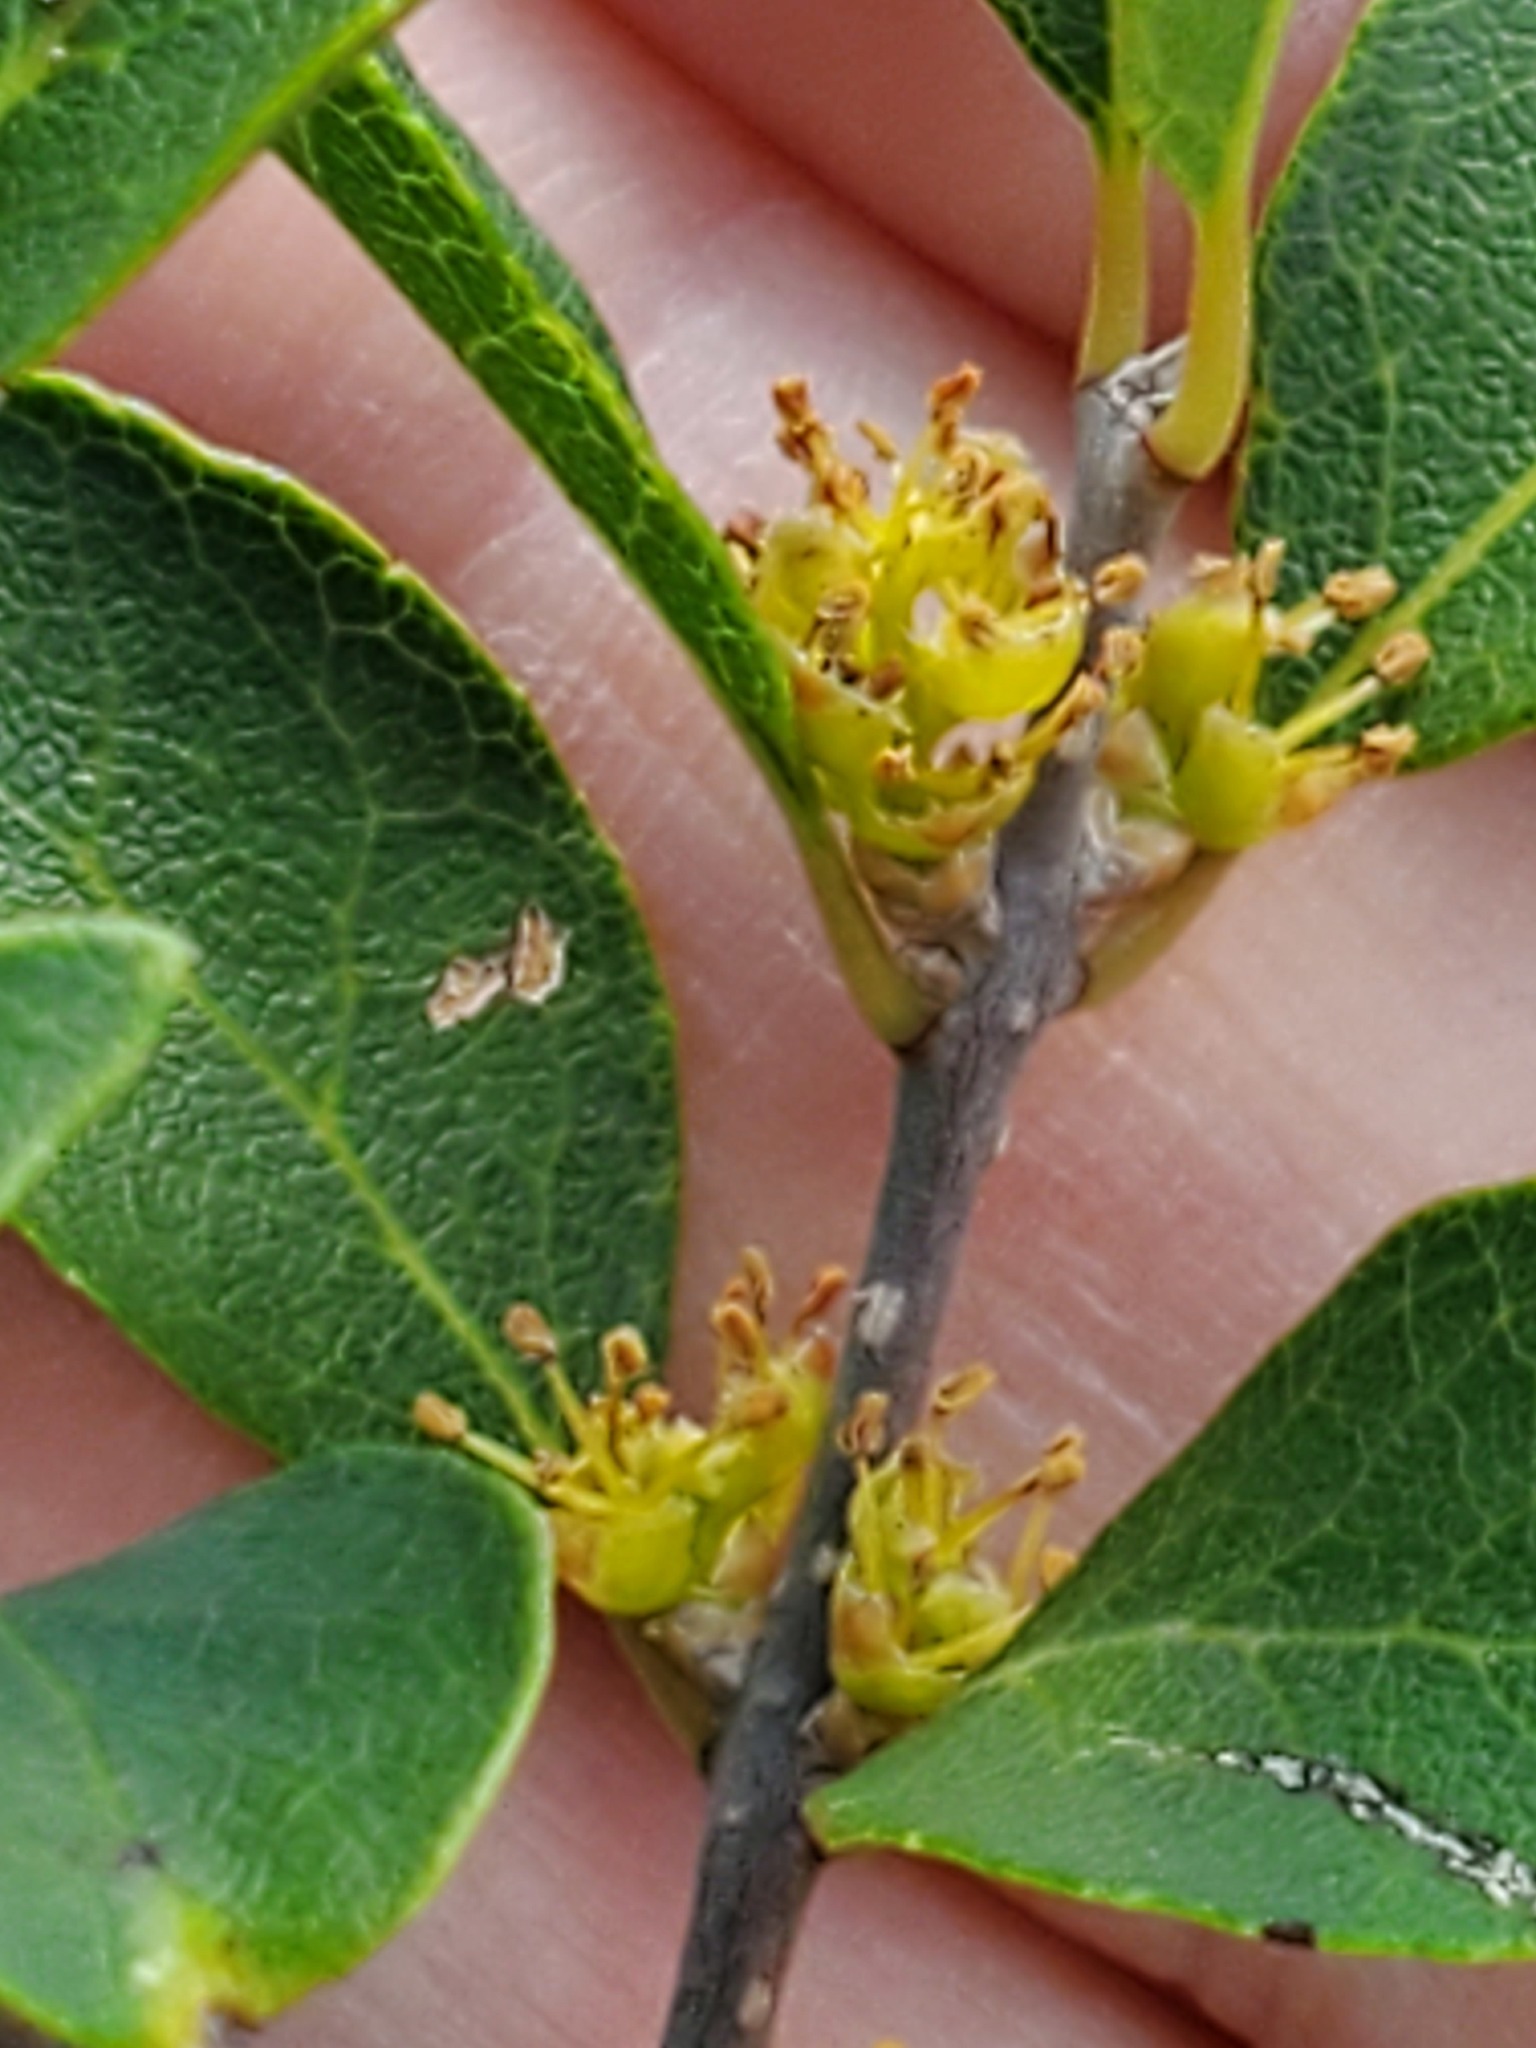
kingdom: Plantae
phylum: Tracheophyta
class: Magnoliopsida
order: Lamiales
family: Oleaceae
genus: Forestiera
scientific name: Forestiera reticulata
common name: Netleaf swamp-privet
